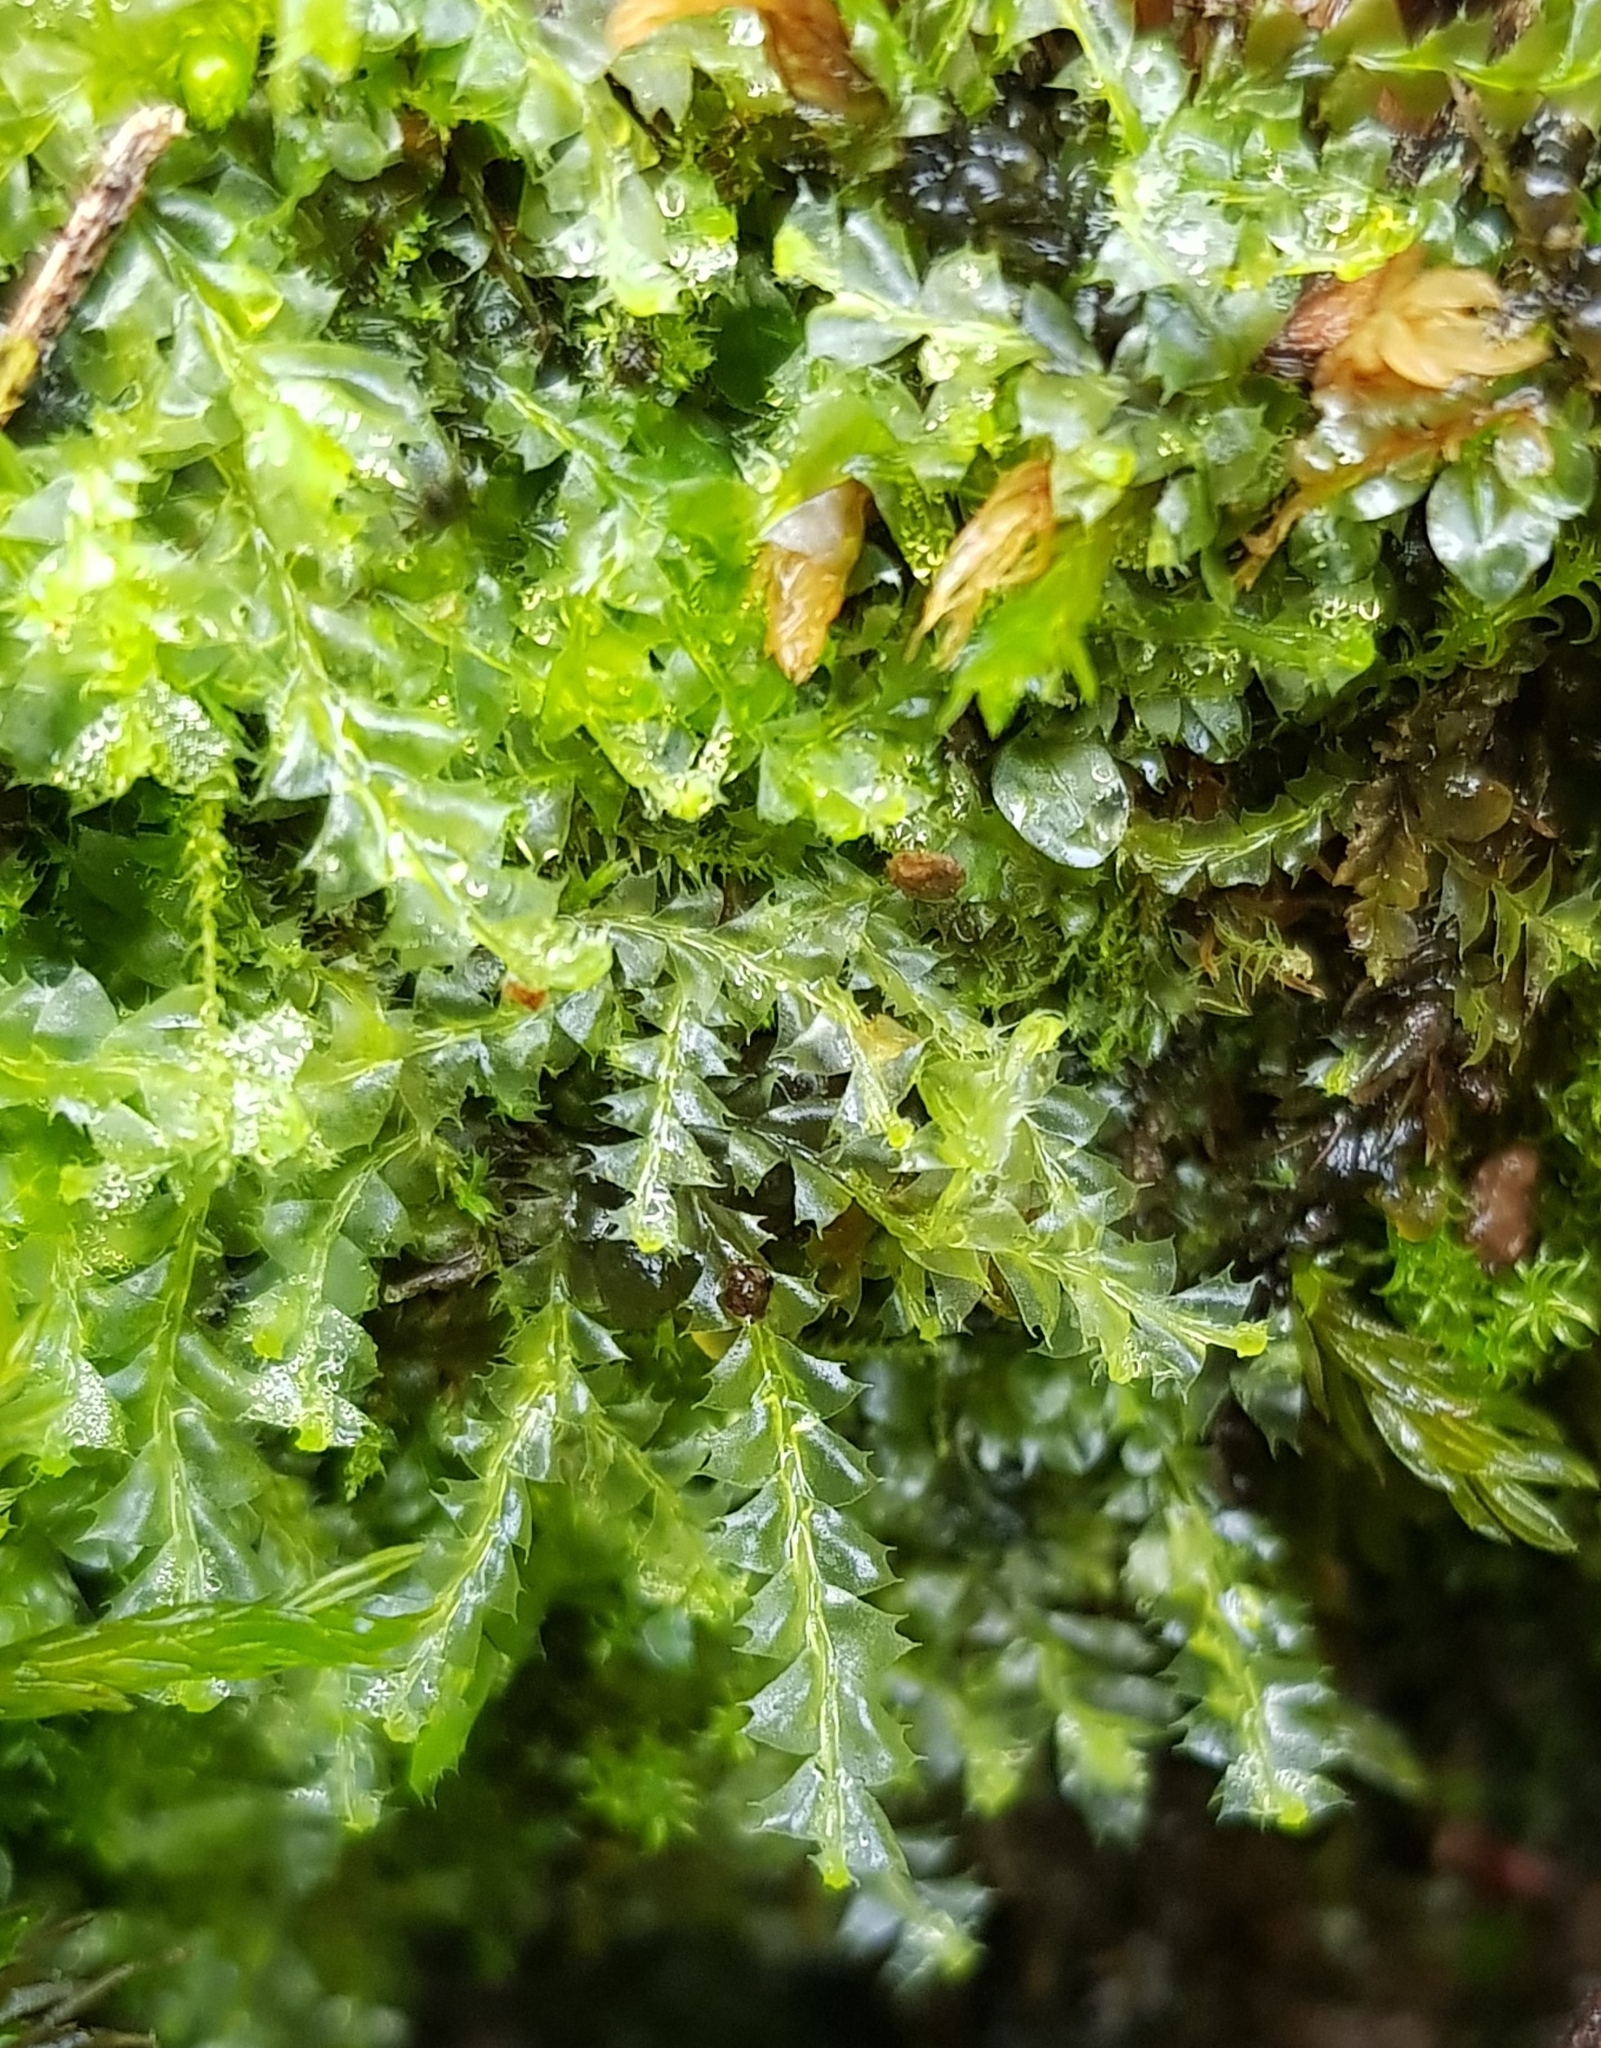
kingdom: Plantae
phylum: Marchantiophyta
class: Jungermanniopsida
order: Jungermanniales
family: Lophocoleaceae
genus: Lophocolea
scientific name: Lophocolea bidentata
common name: Bifid crestwort
